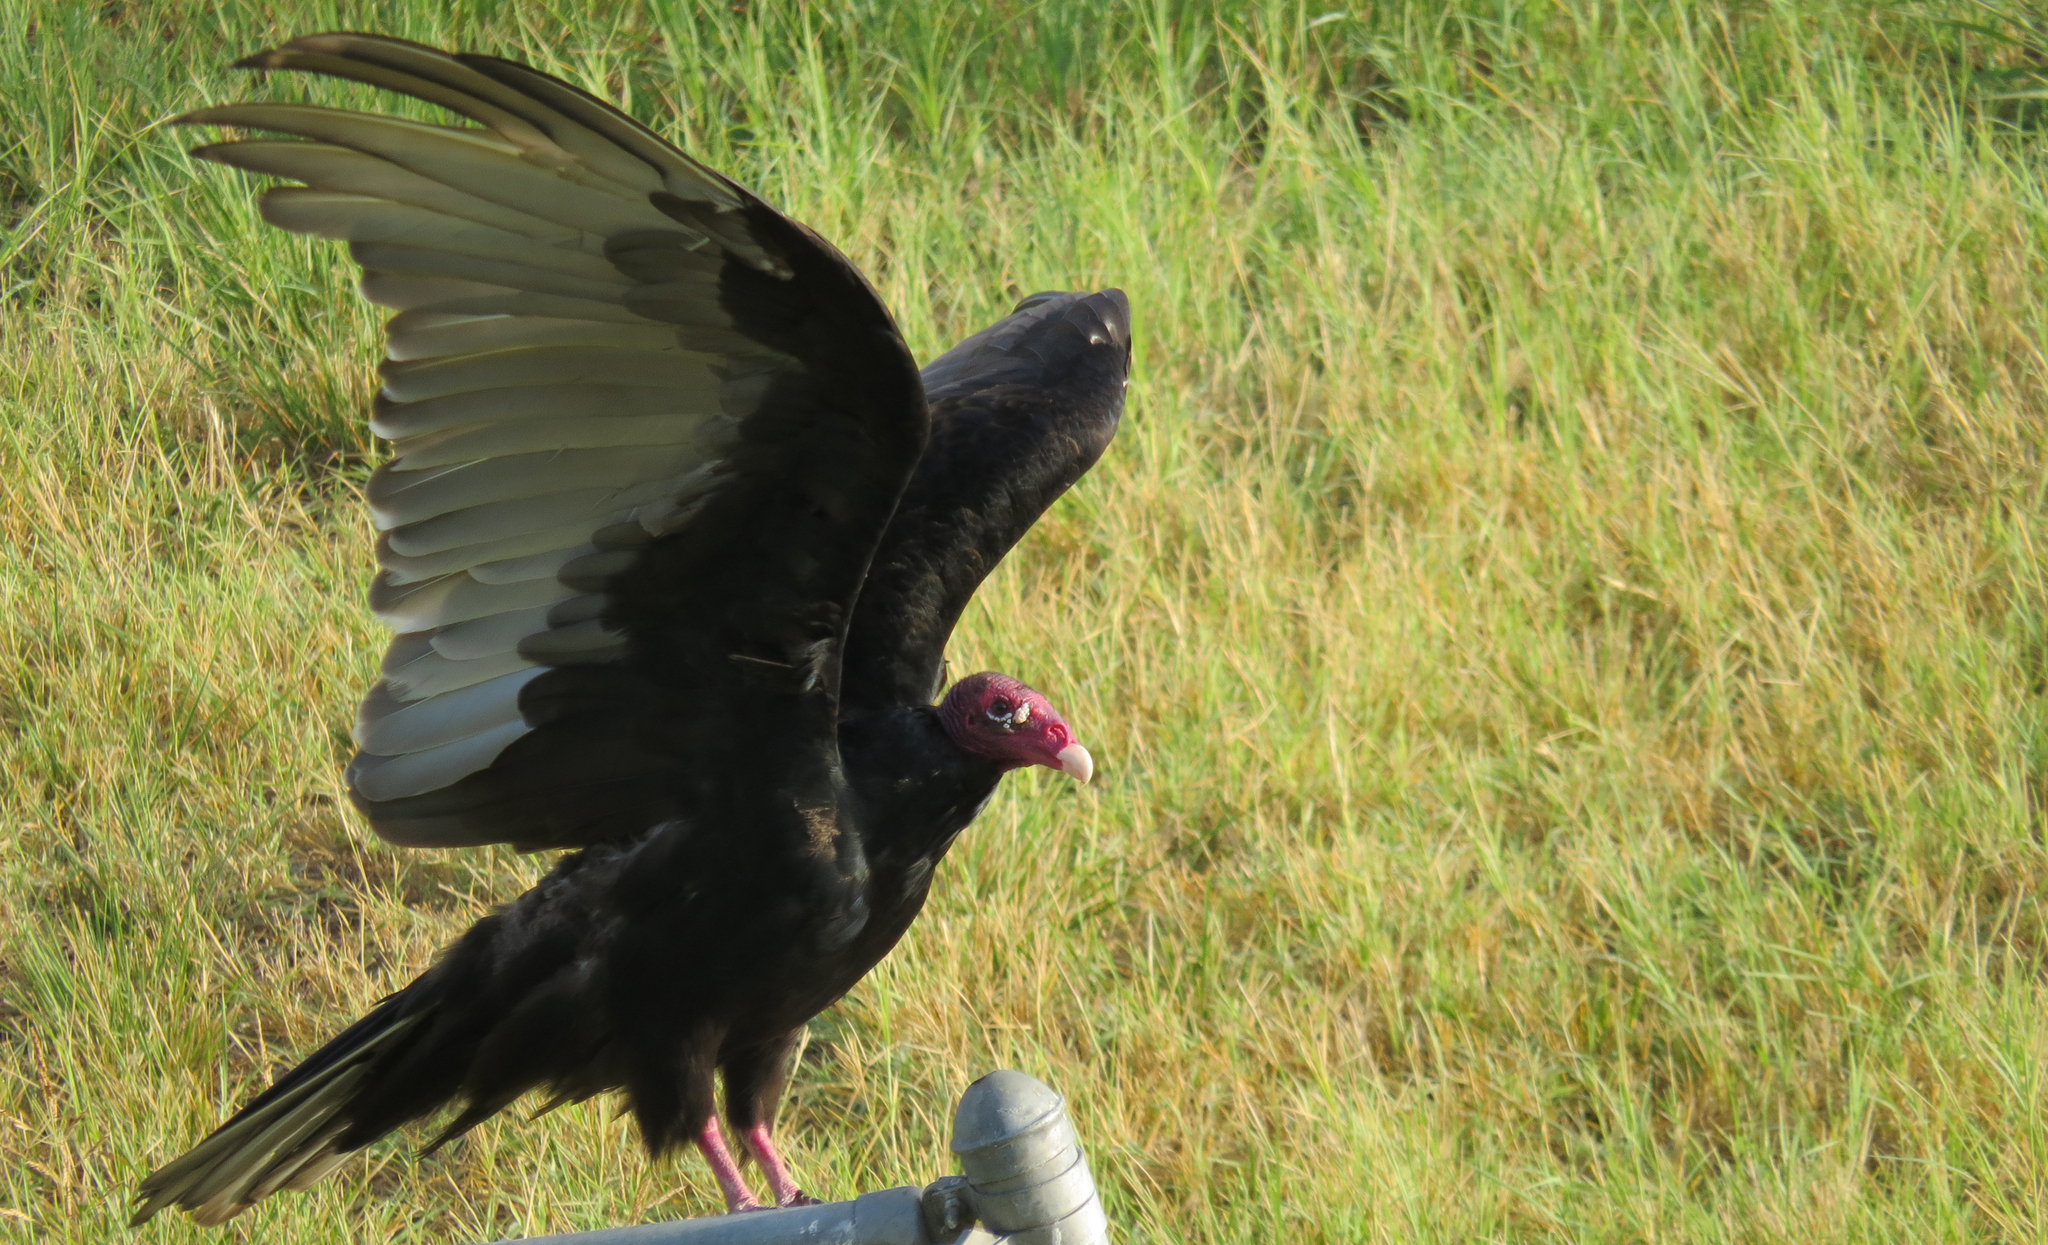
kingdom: Animalia
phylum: Chordata
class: Aves
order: Accipitriformes
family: Cathartidae
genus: Cathartes
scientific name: Cathartes aura
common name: Turkey vulture
